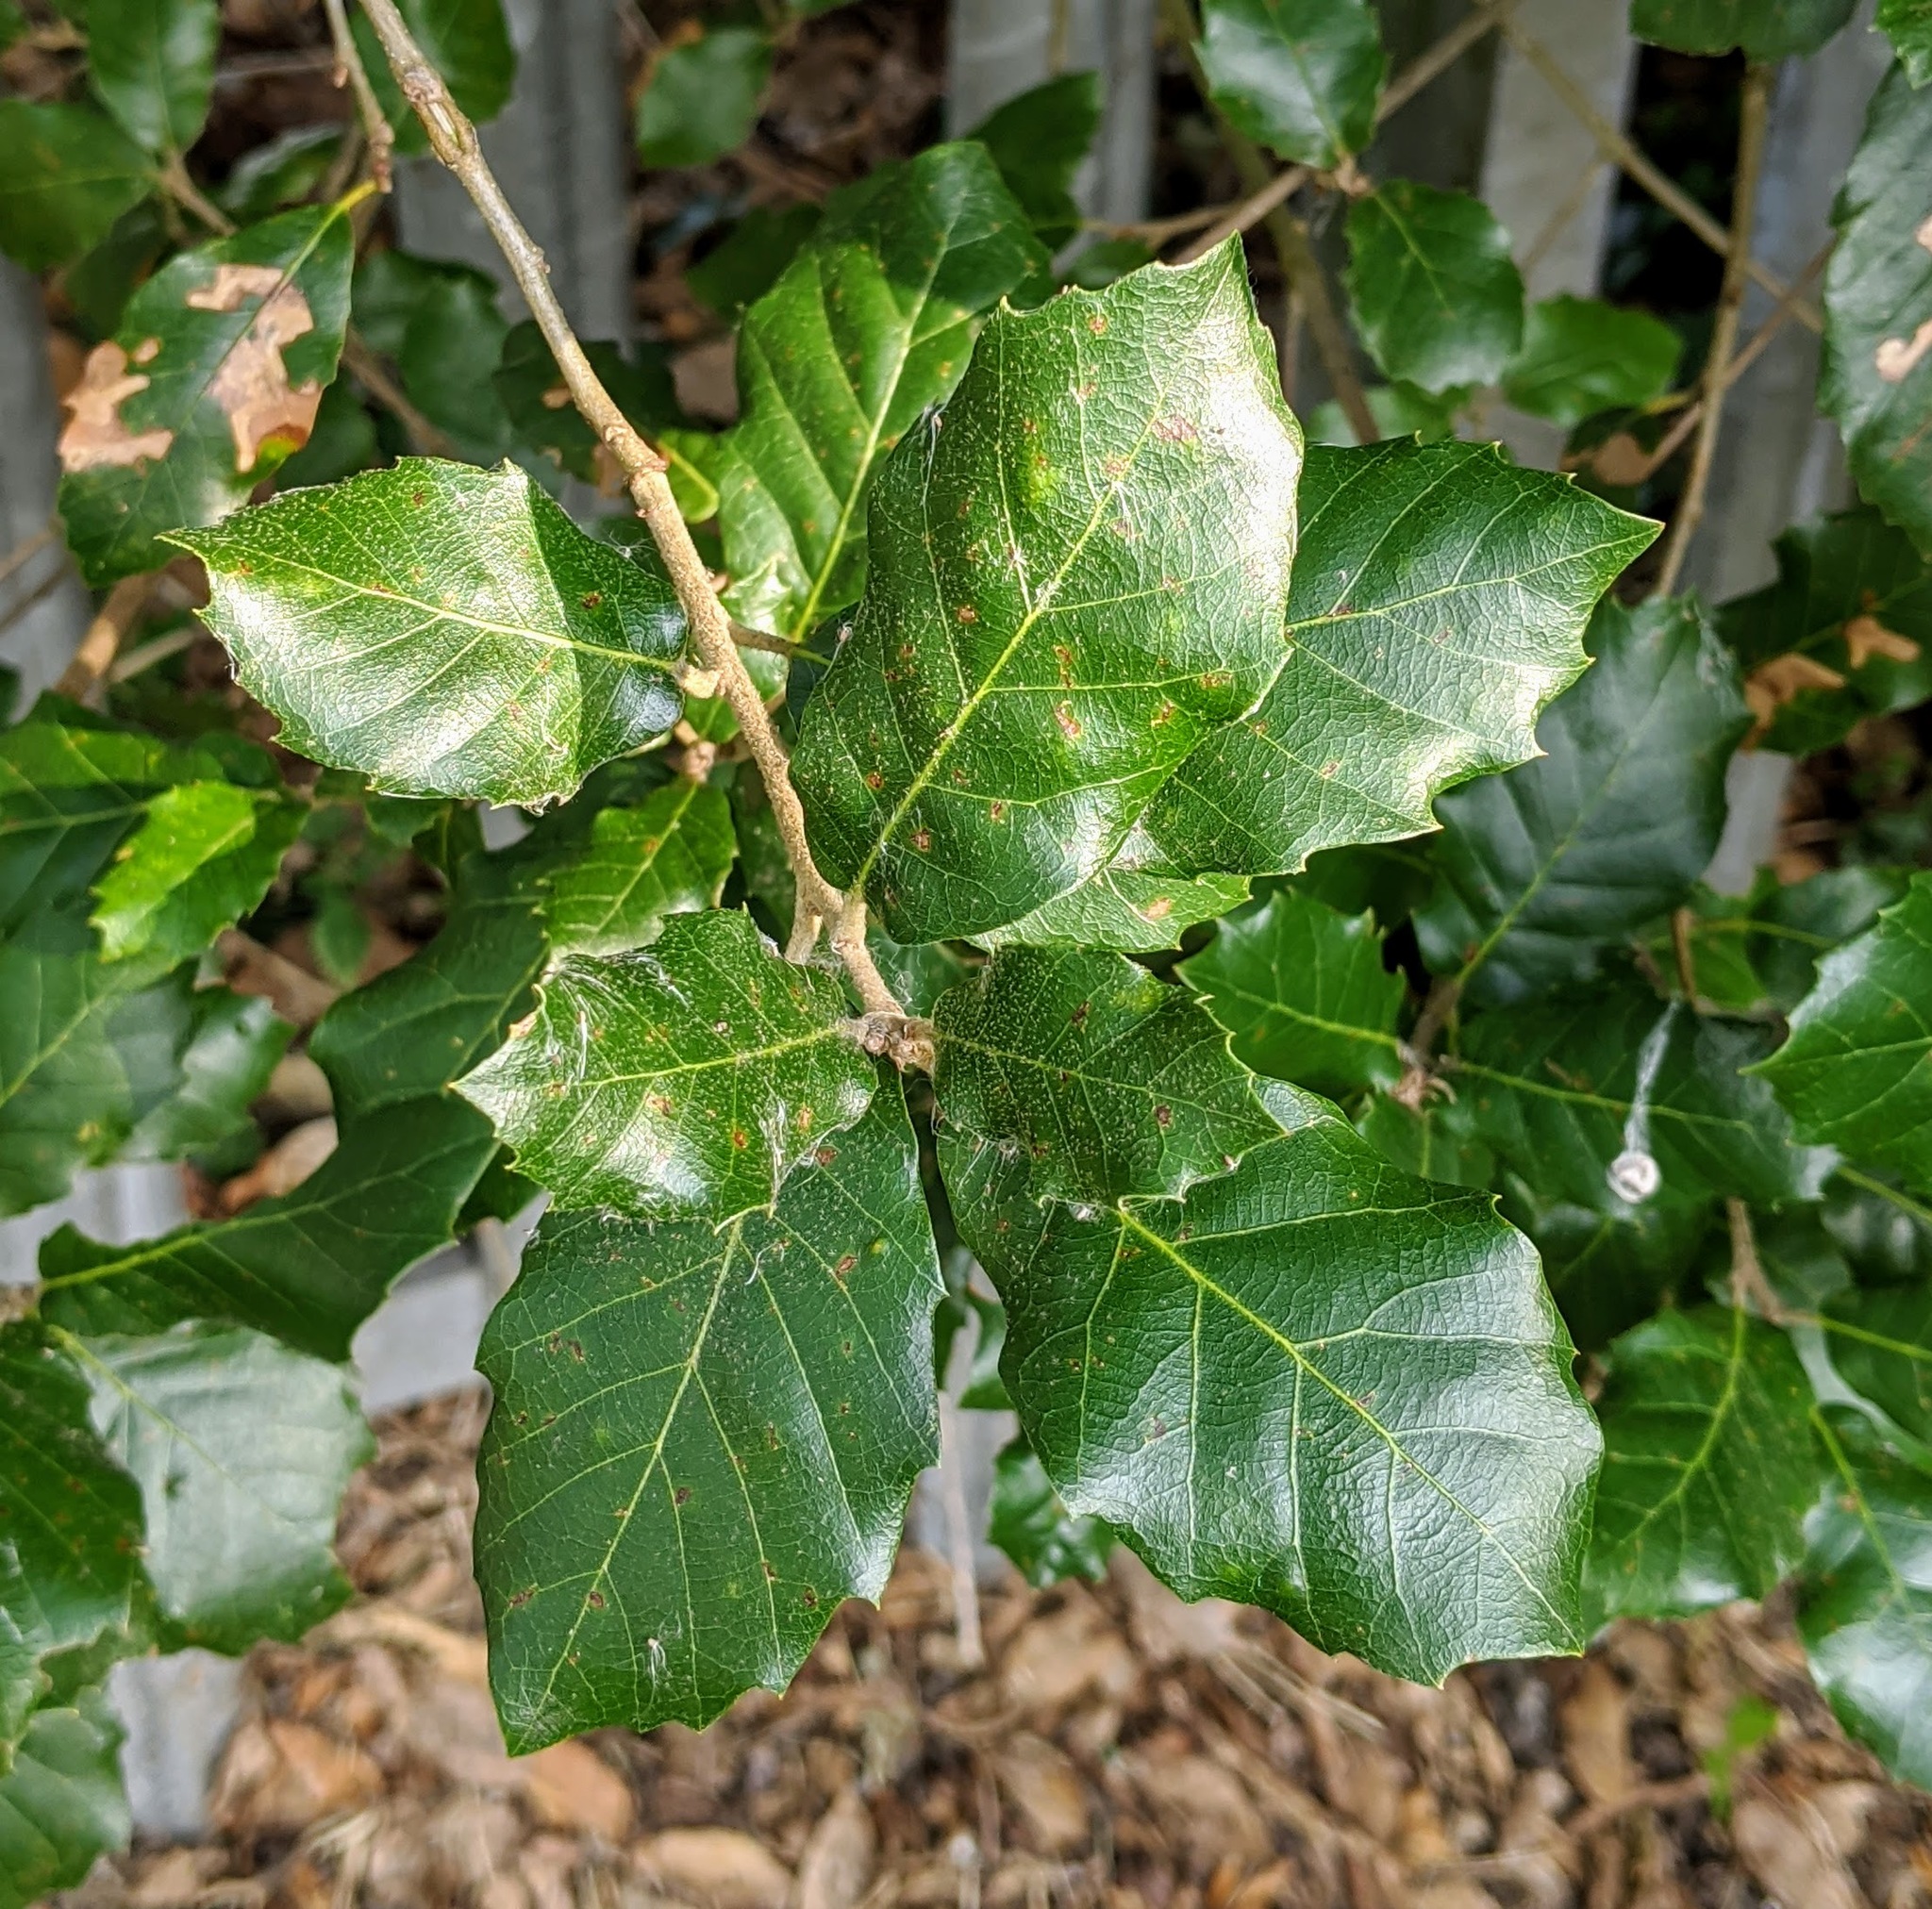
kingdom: Plantae
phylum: Tracheophyta
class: Magnoliopsida
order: Fagales
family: Fagaceae
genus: Quercus
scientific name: Quercus ilex
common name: Evergreen oak
